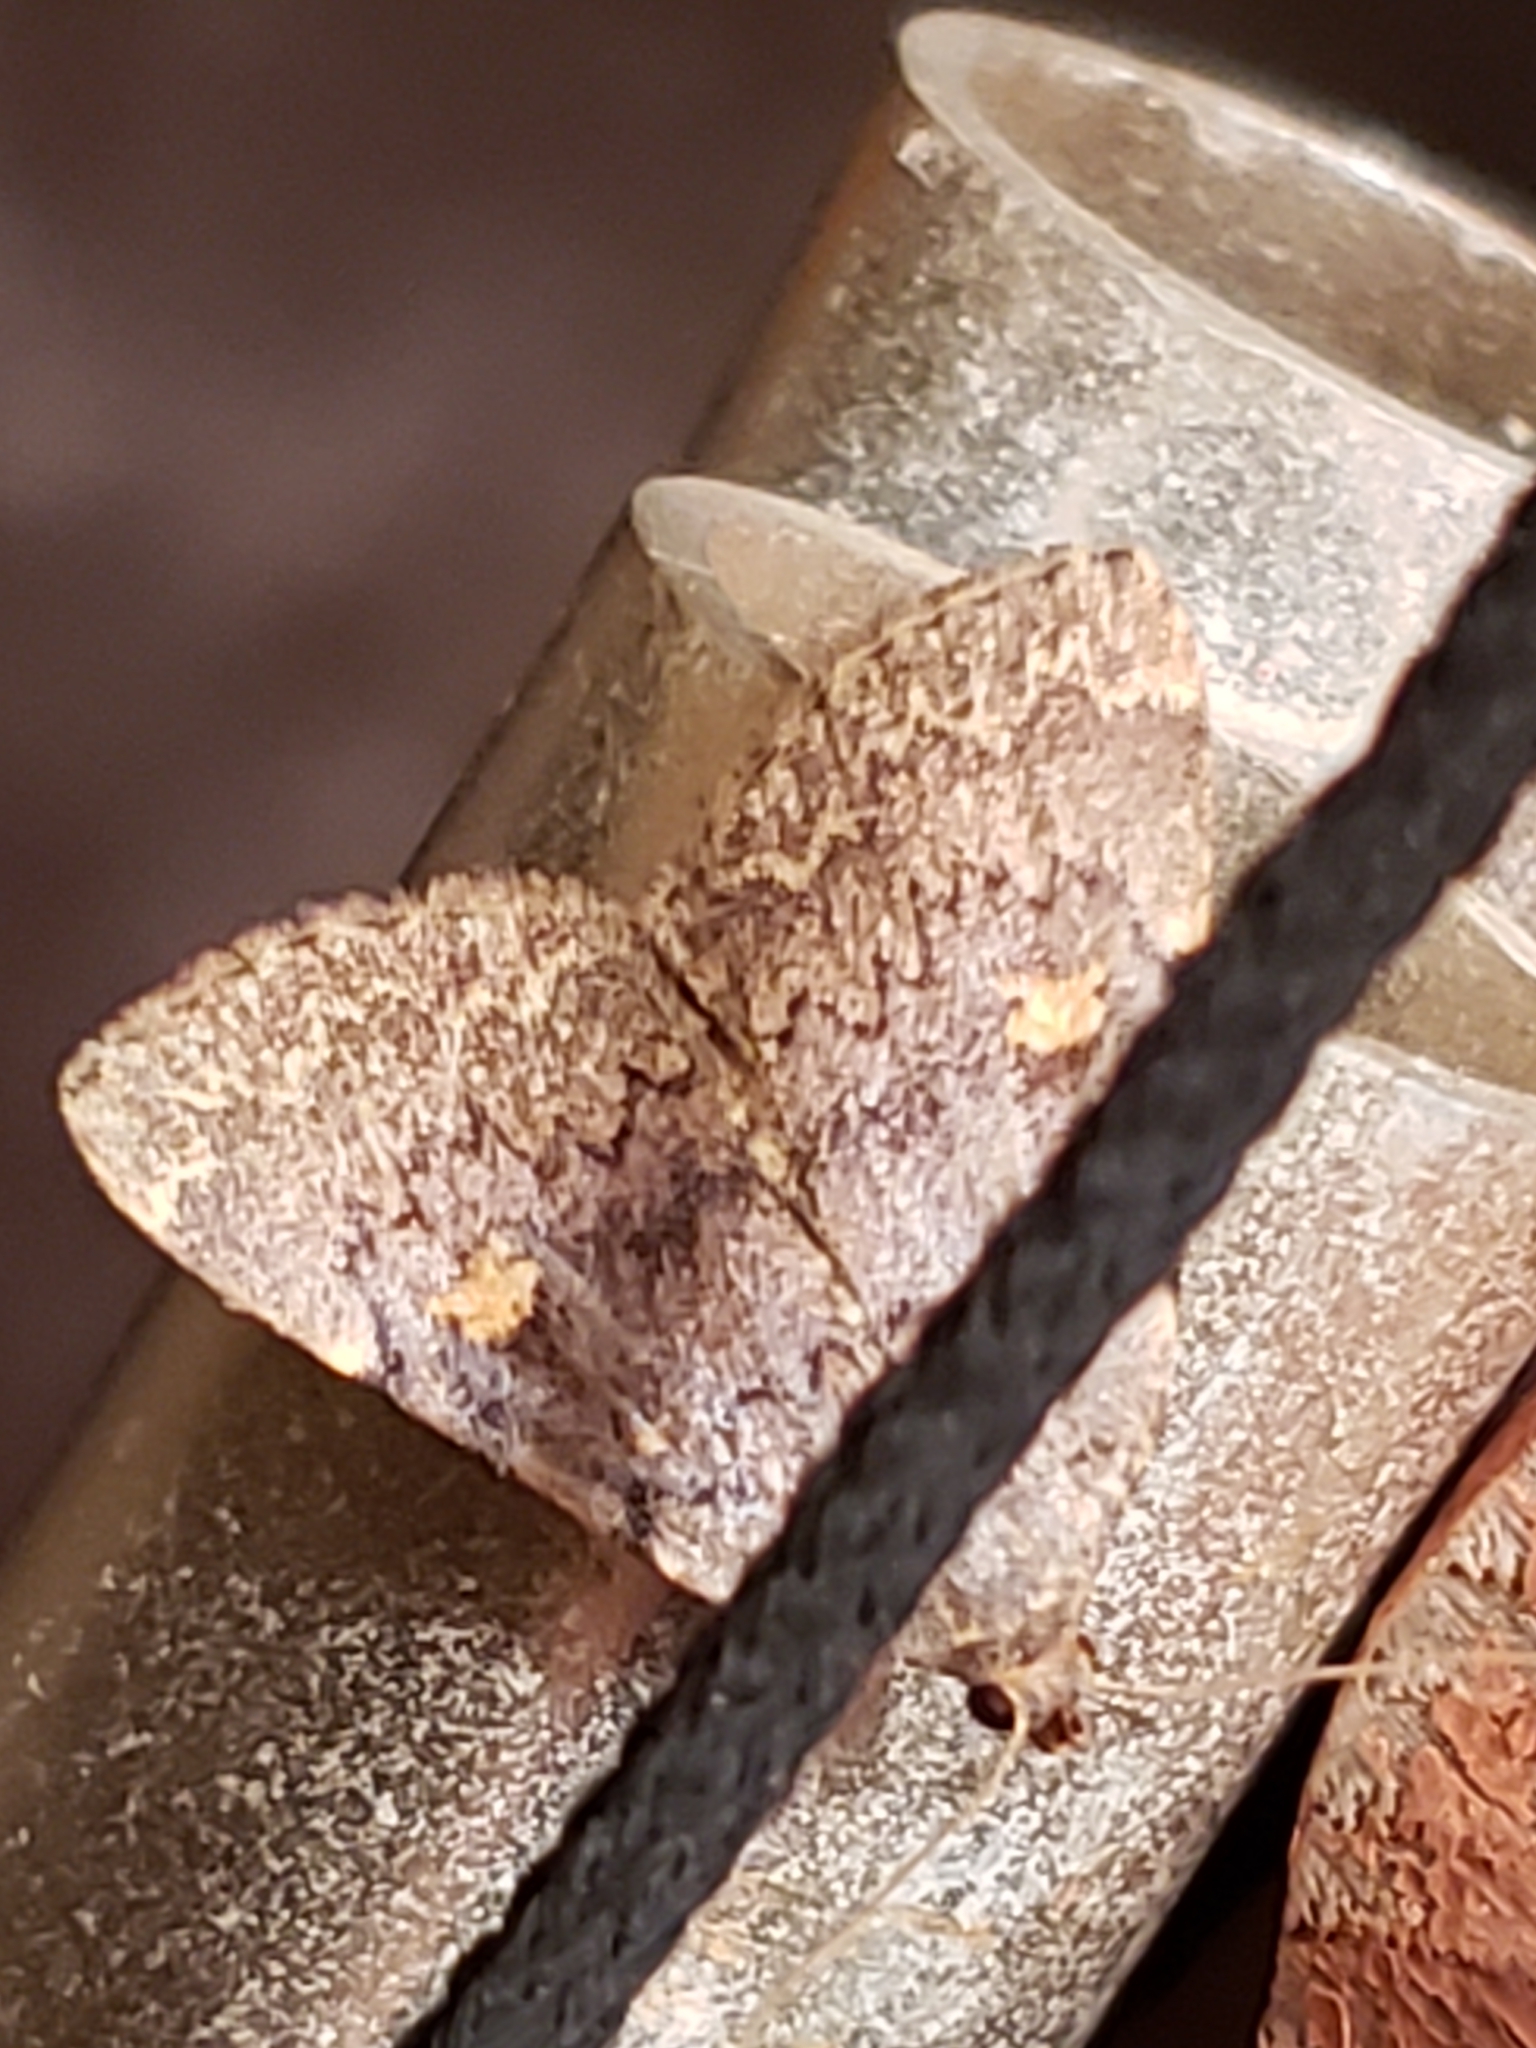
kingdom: Animalia
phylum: Arthropoda
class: Insecta
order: Lepidoptera
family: Erebidae
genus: Idia
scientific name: Idia aemula
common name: Common idia moth
